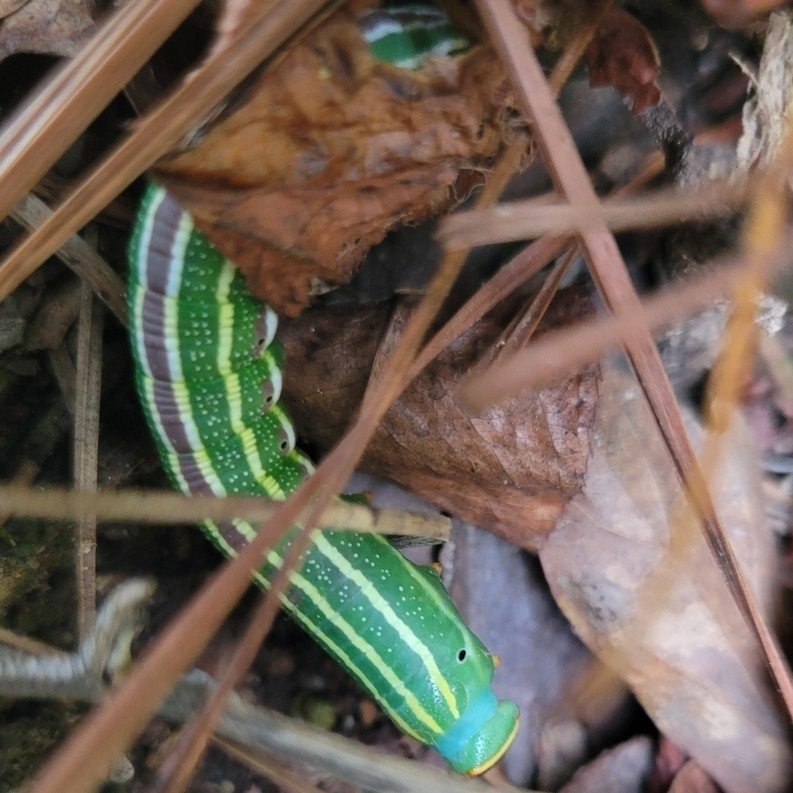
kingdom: Animalia
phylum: Arthropoda
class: Insecta
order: Lepidoptera
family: Sphingidae
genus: Lapara
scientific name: Lapara coniferarum
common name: Southern pine sphinx
